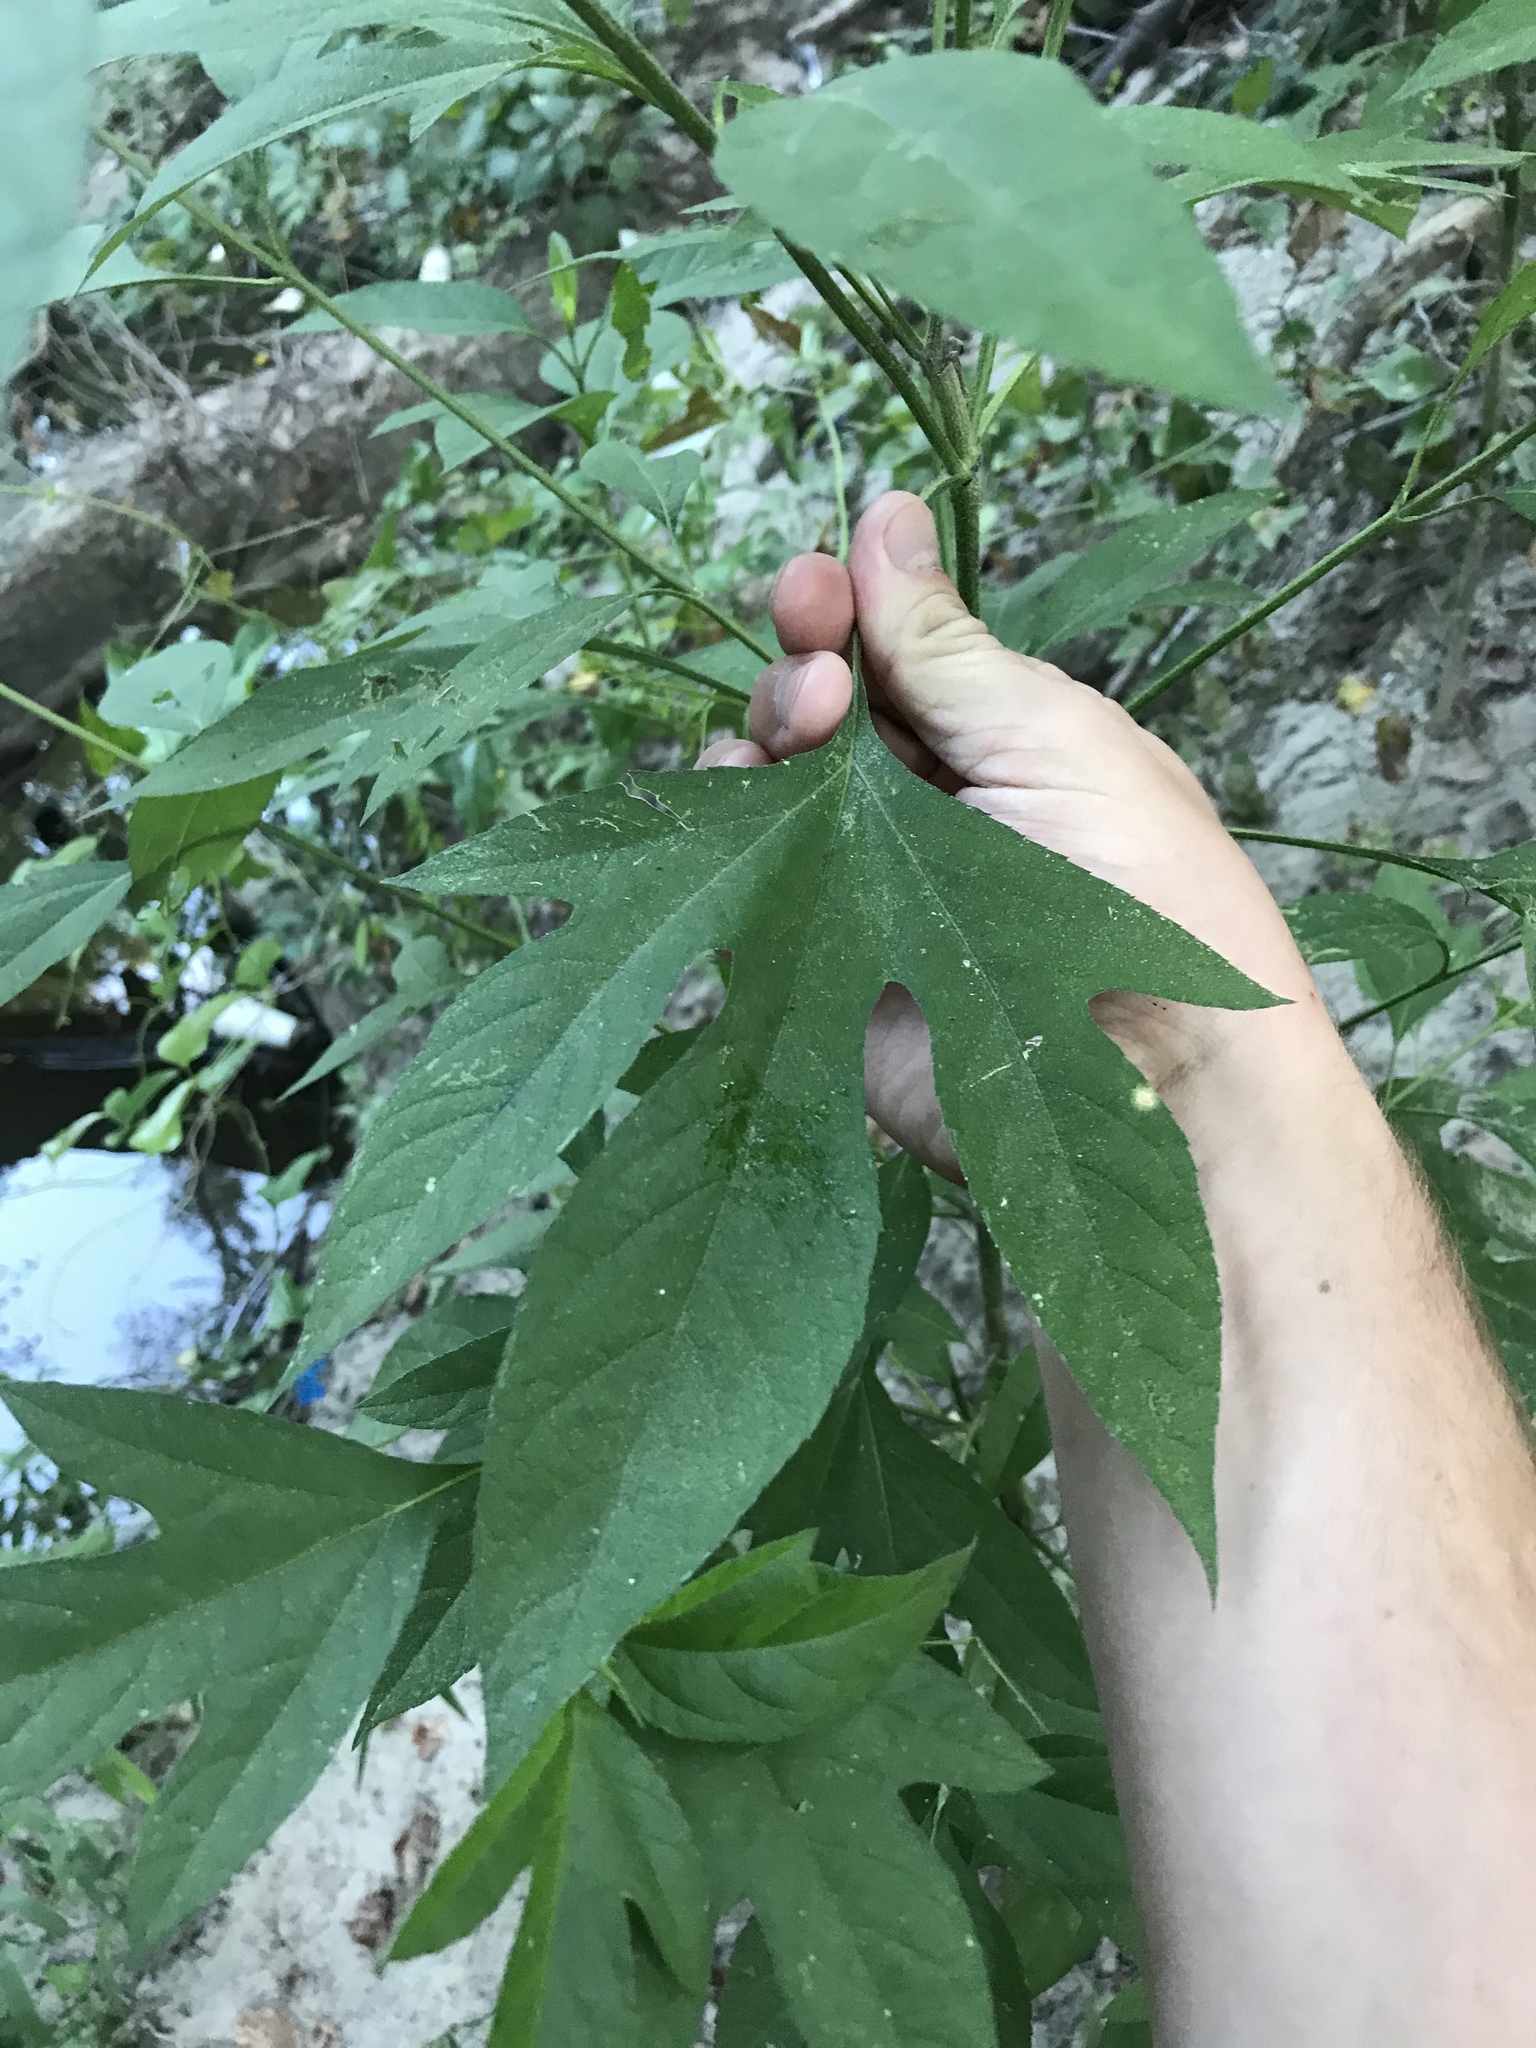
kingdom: Plantae
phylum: Tracheophyta
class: Magnoliopsida
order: Asterales
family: Asteraceae
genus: Ambrosia
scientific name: Ambrosia trifida
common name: Giant ragweed
